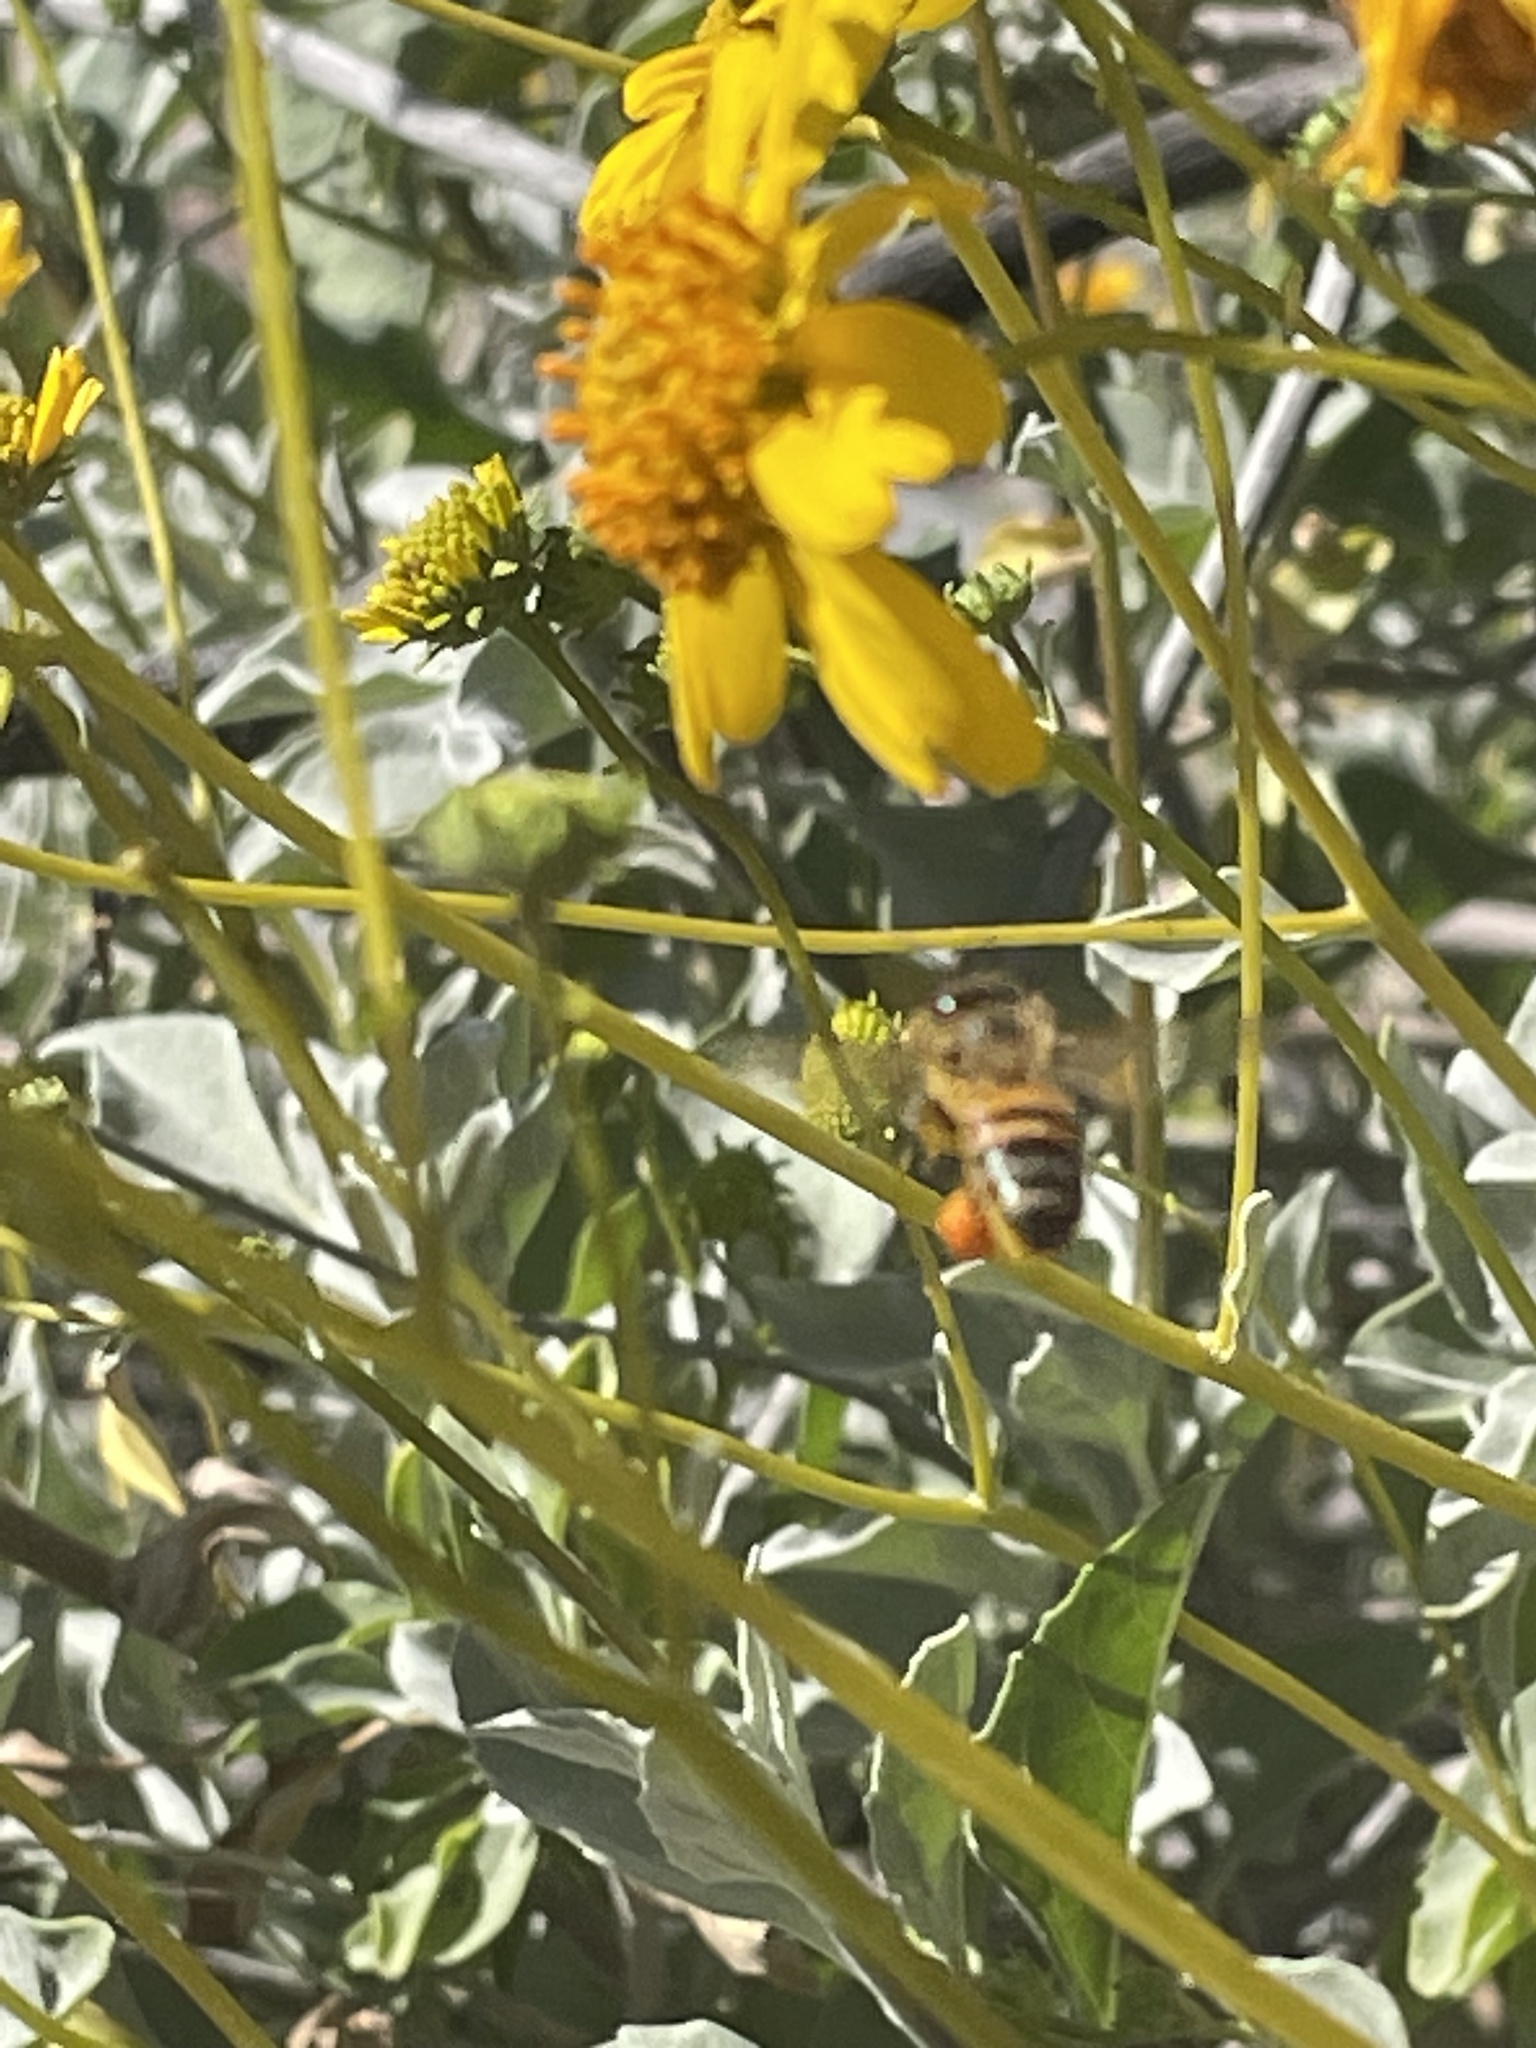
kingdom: Animalia
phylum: Arthropoda
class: Insecta
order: Hymenoptera
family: Apidae
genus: Apis
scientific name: Apis mellifera
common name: Honey bee
